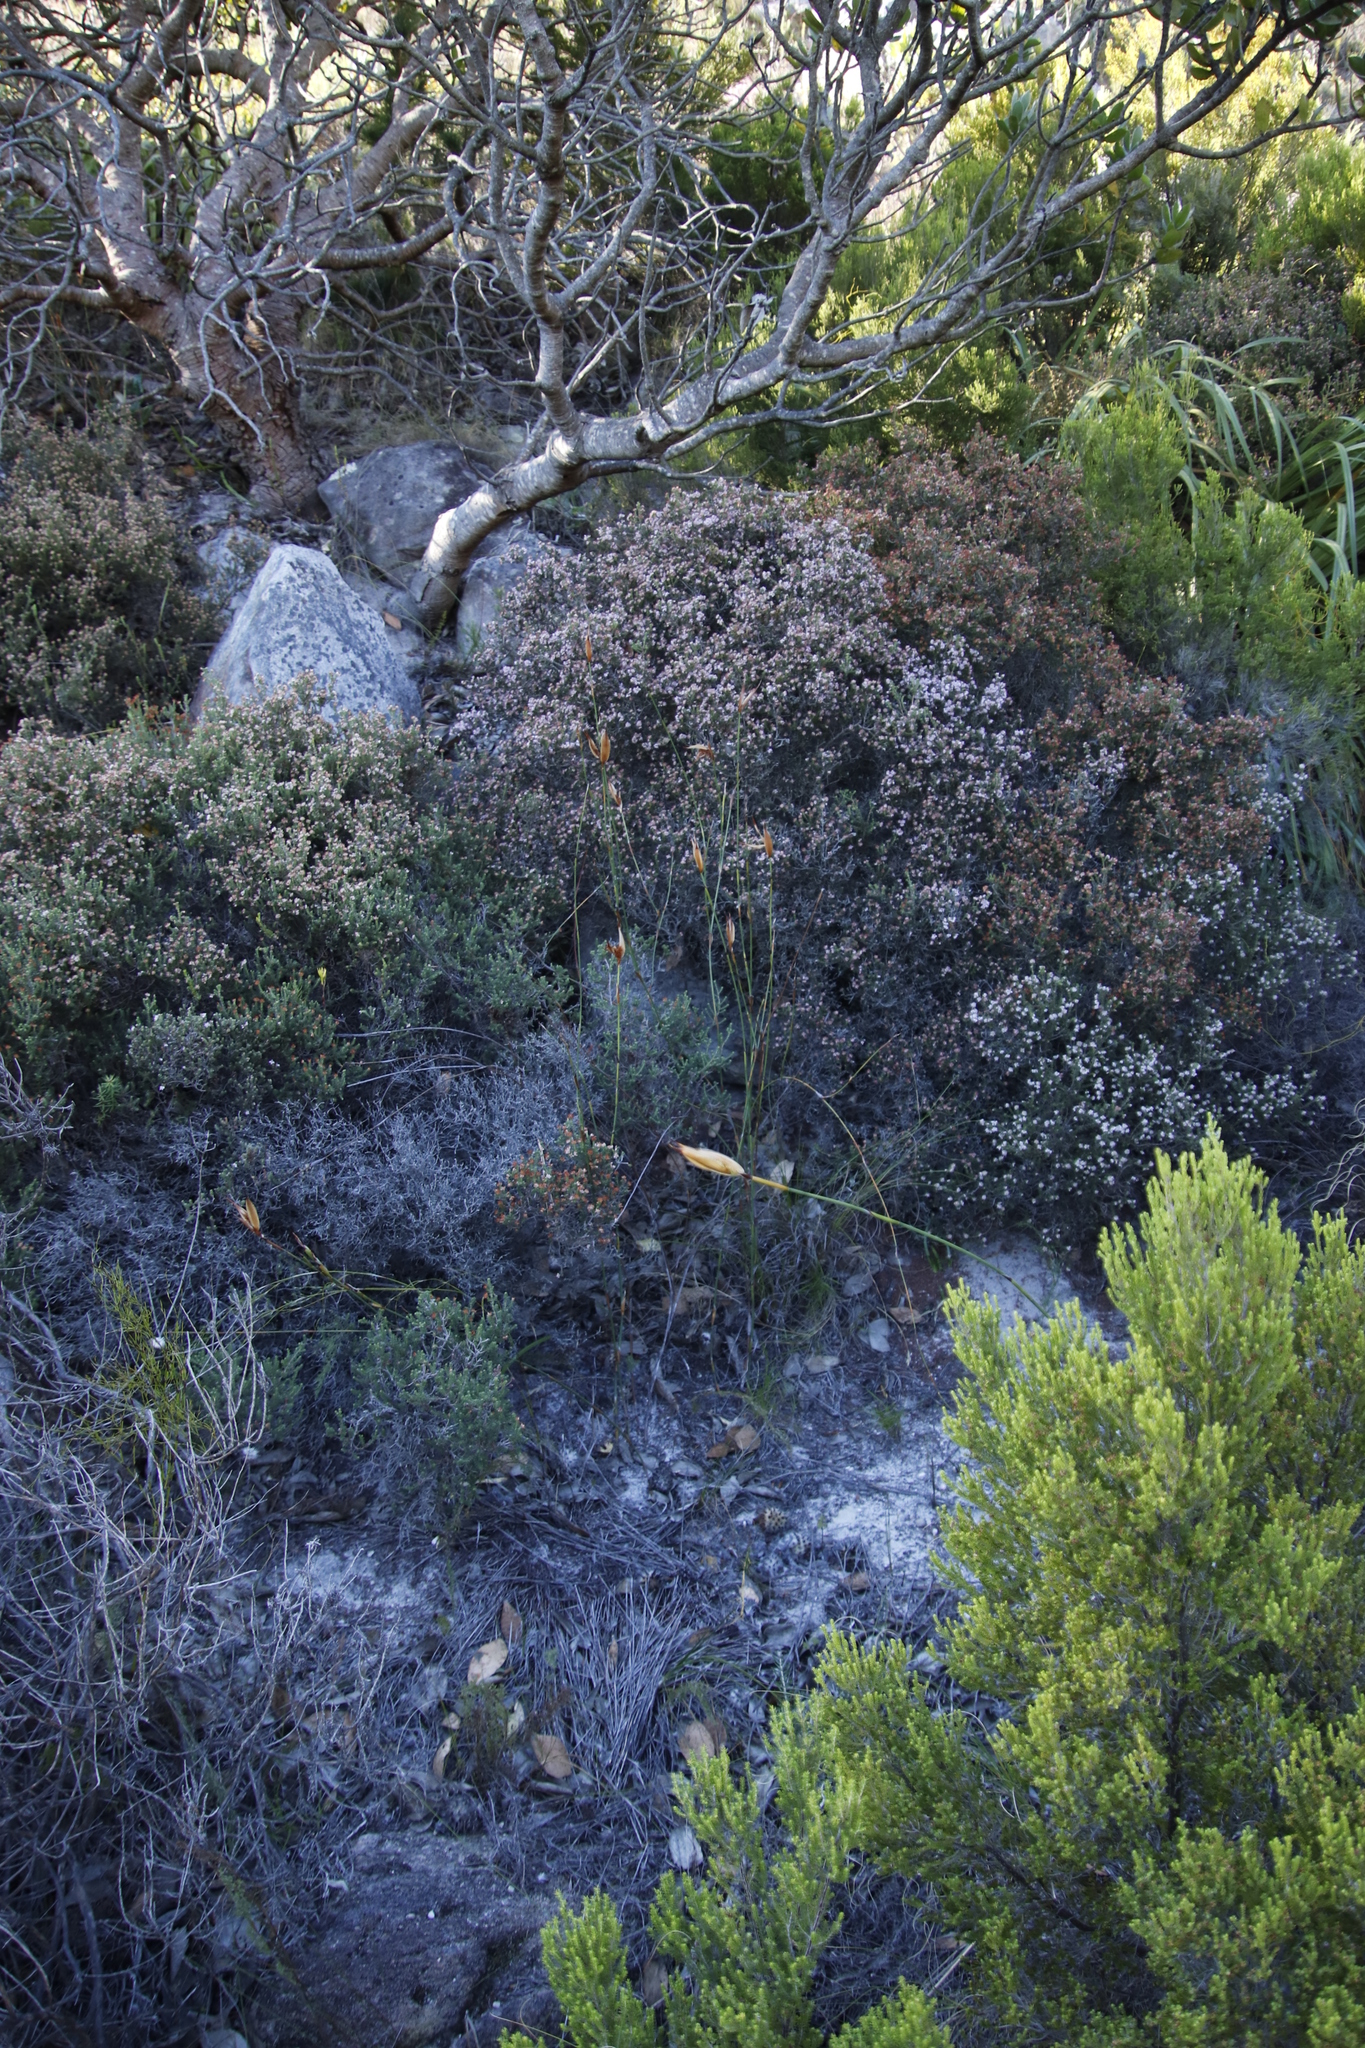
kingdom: Plantae
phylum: Tracheophyta
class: Liliopsida
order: Poales
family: Restionaceae
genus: Willdenowia
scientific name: Willdenowia glomerata
